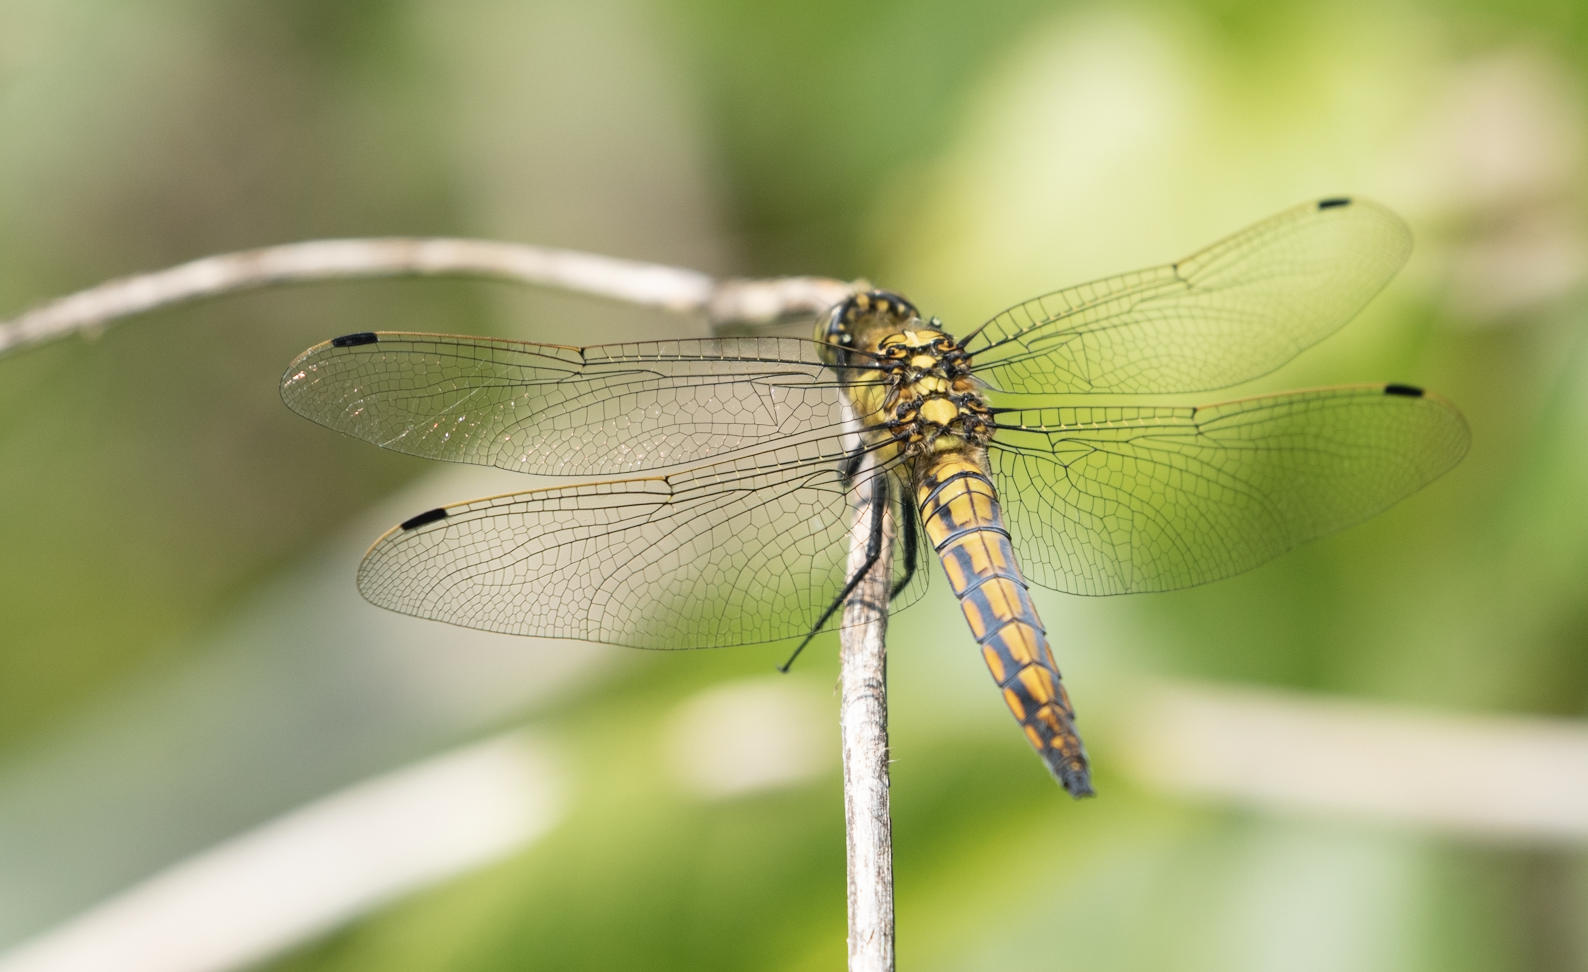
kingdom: Animalia
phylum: Arthropoda
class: Insecta
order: Odonata
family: Libellulidae
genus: Orthetrum
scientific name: Orthetrum cancellatum
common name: Black-tailed skimmer
